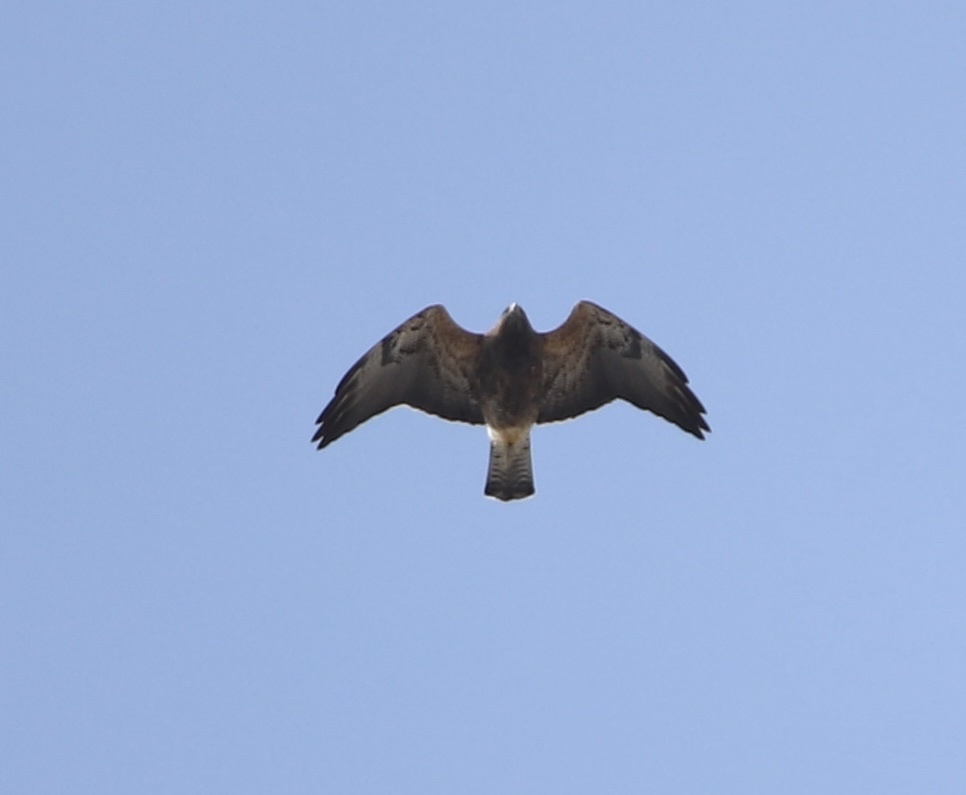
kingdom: Animalia
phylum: Chordata
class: Aves
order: Accipitriformes
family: Accipitridae
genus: Buteo
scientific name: Buteo swainsoni
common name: Swainson's hawk
